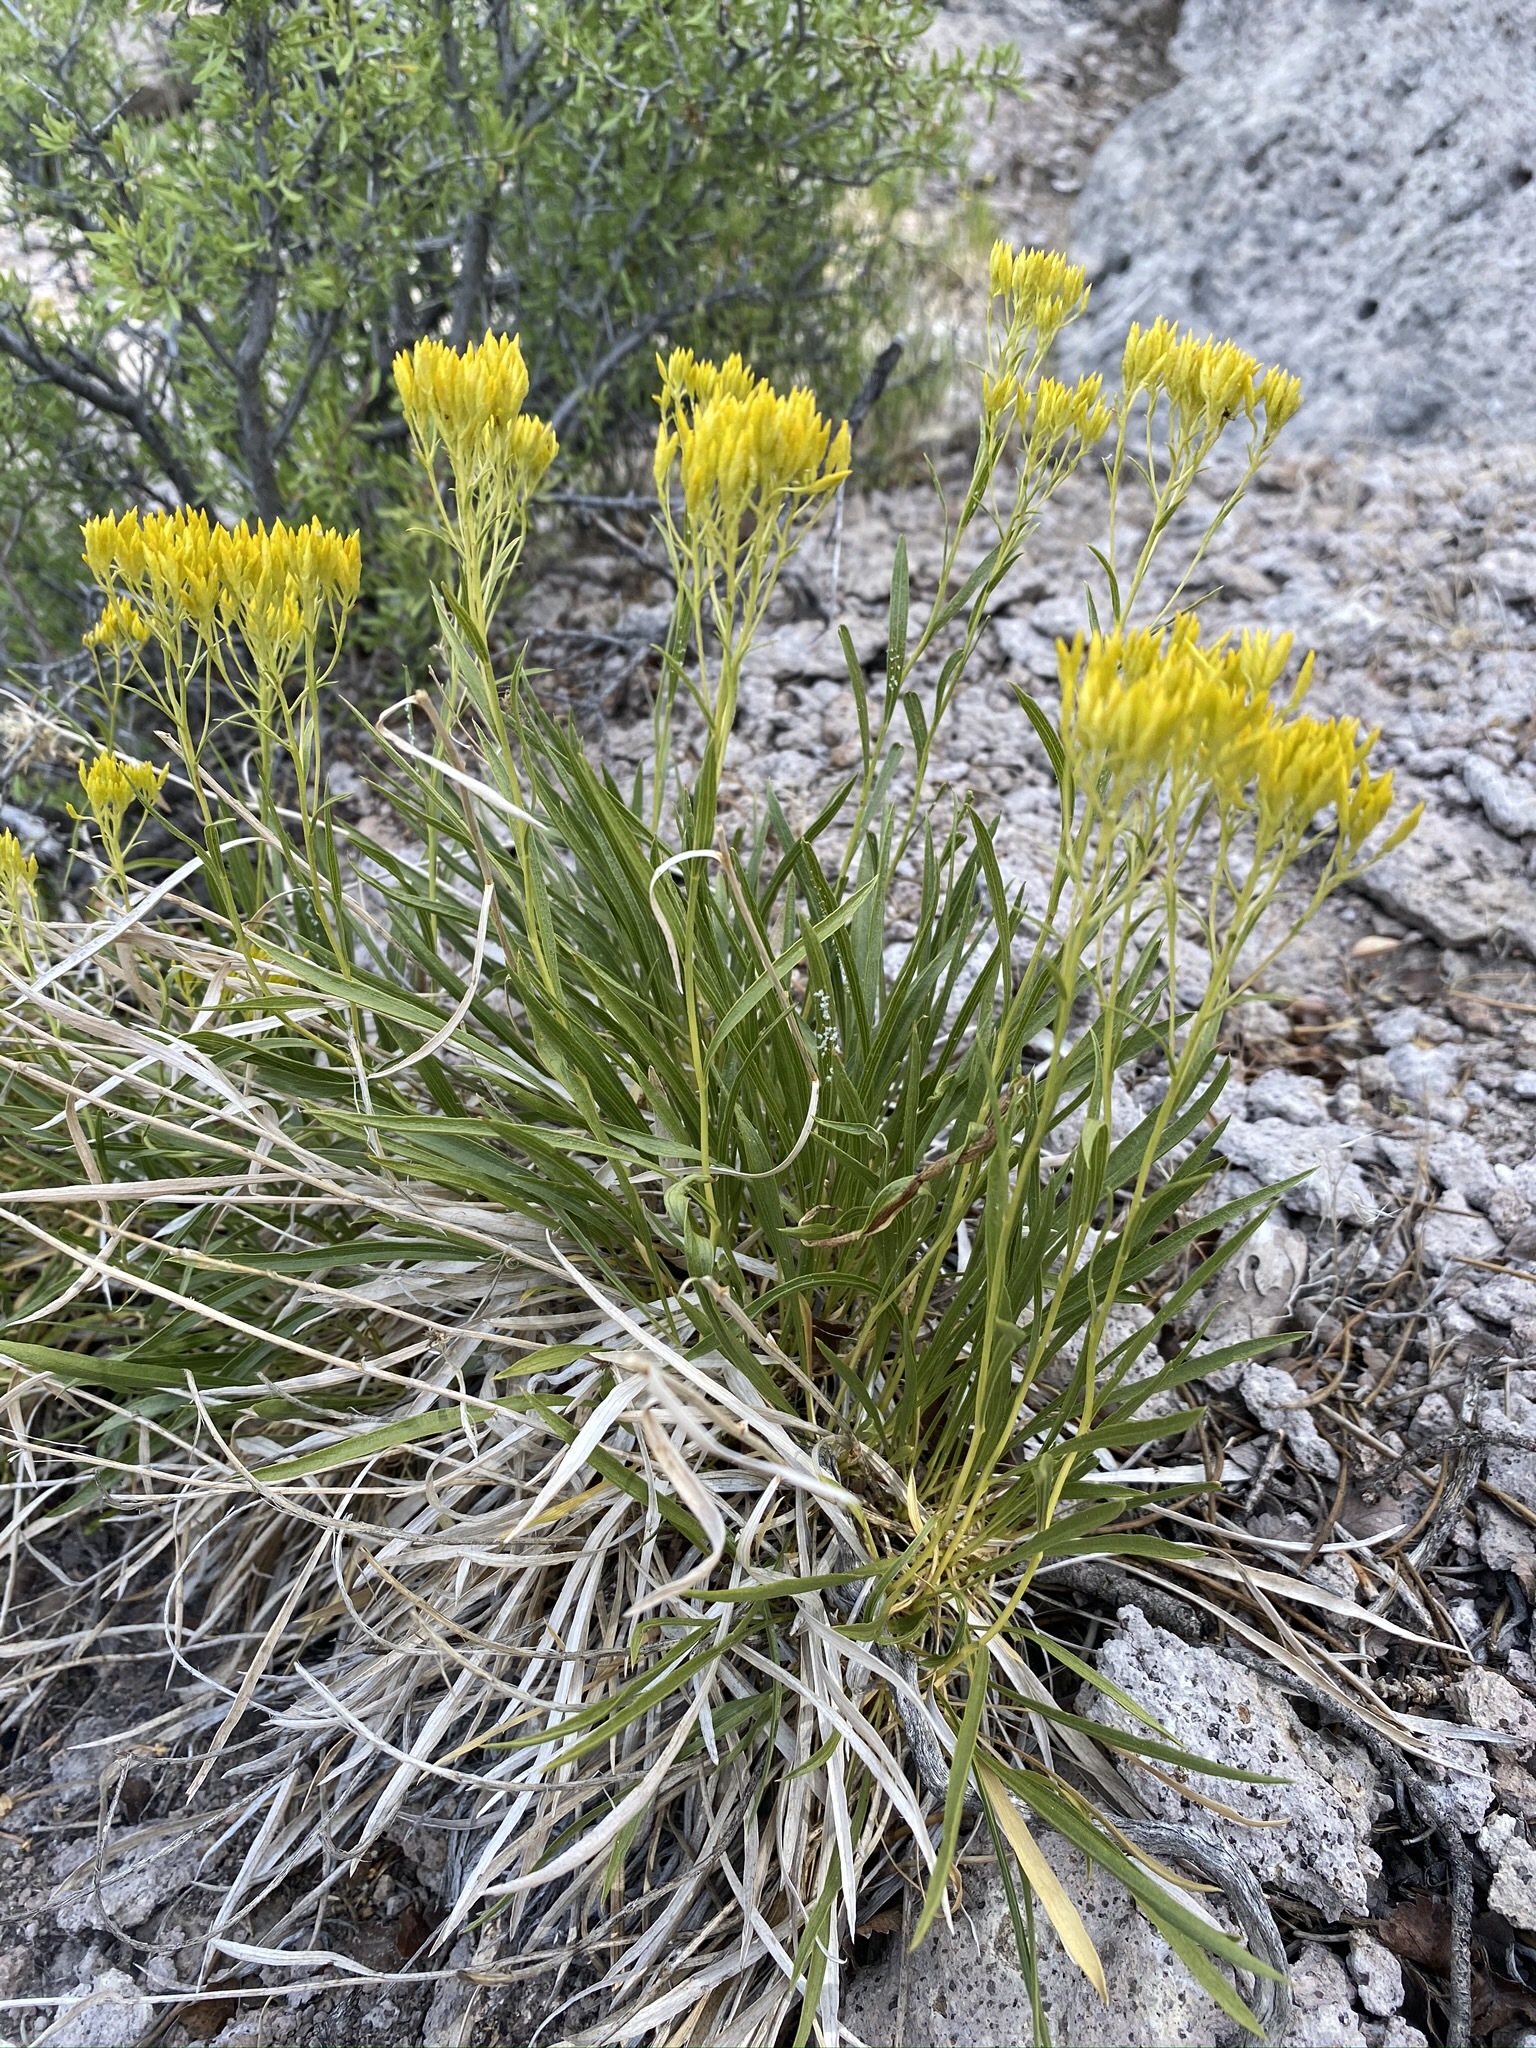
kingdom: Plantae
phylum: Tracheophyta
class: Magnoliopsida
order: Asterales
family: Asteraceae
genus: Petradoria
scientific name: Petradoria pumila
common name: Rock-goldenrod
